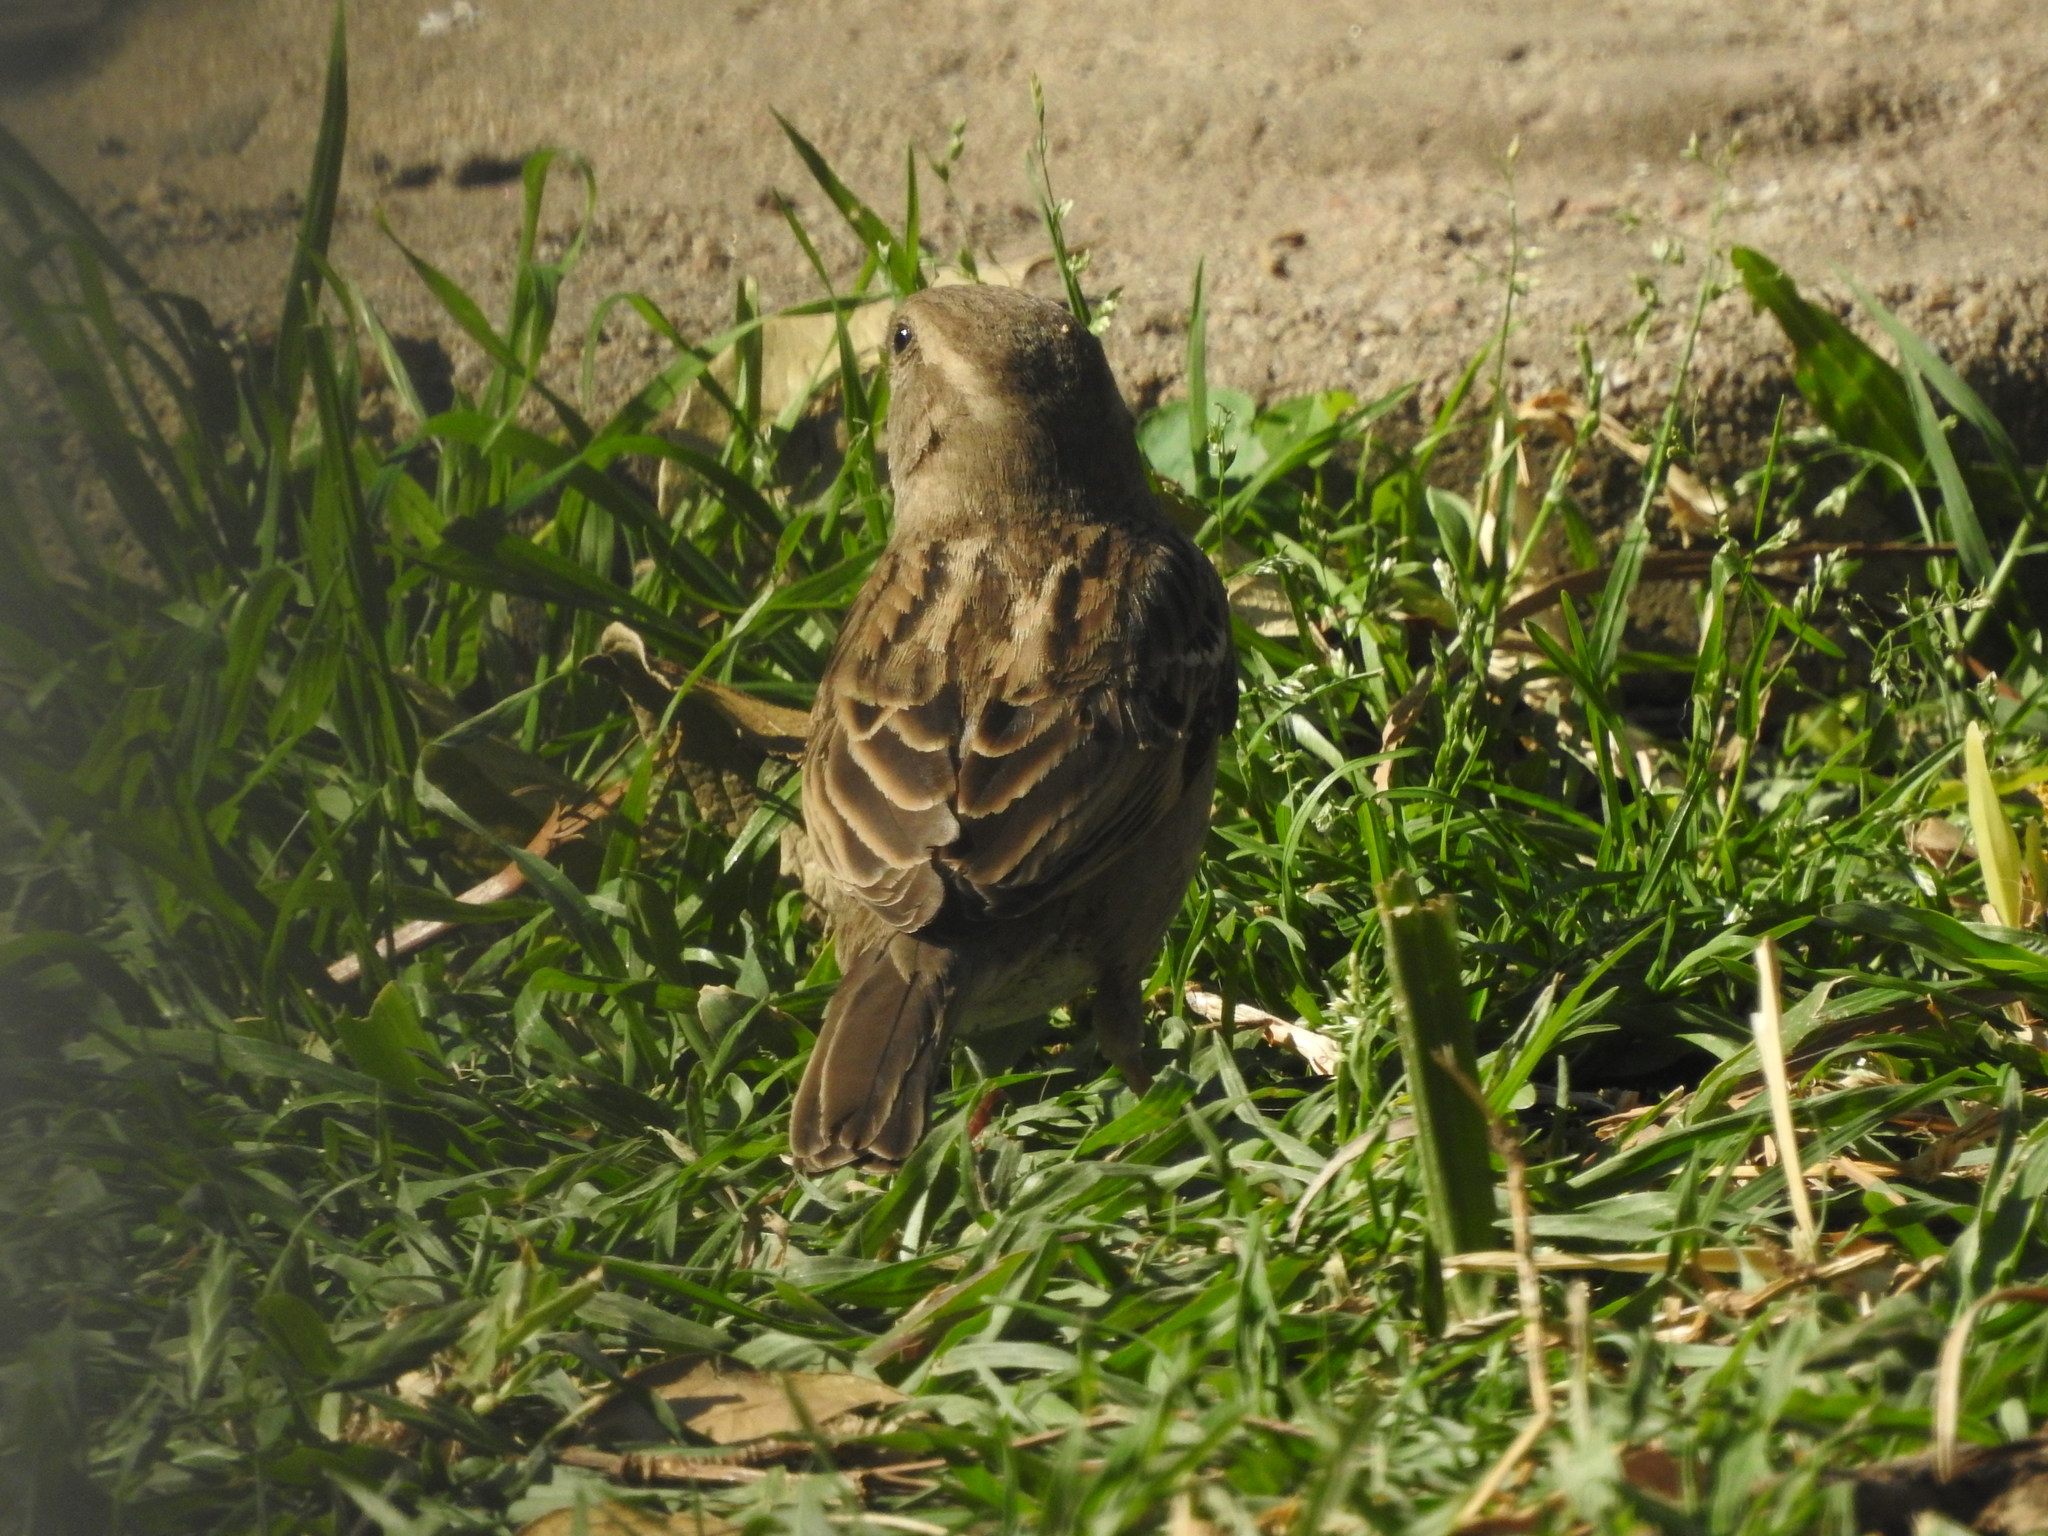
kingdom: Animalia
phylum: Chordata
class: Aves
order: Passeriformes
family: Passeridae
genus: Passer
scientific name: Passer domesticus
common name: House sparrow
